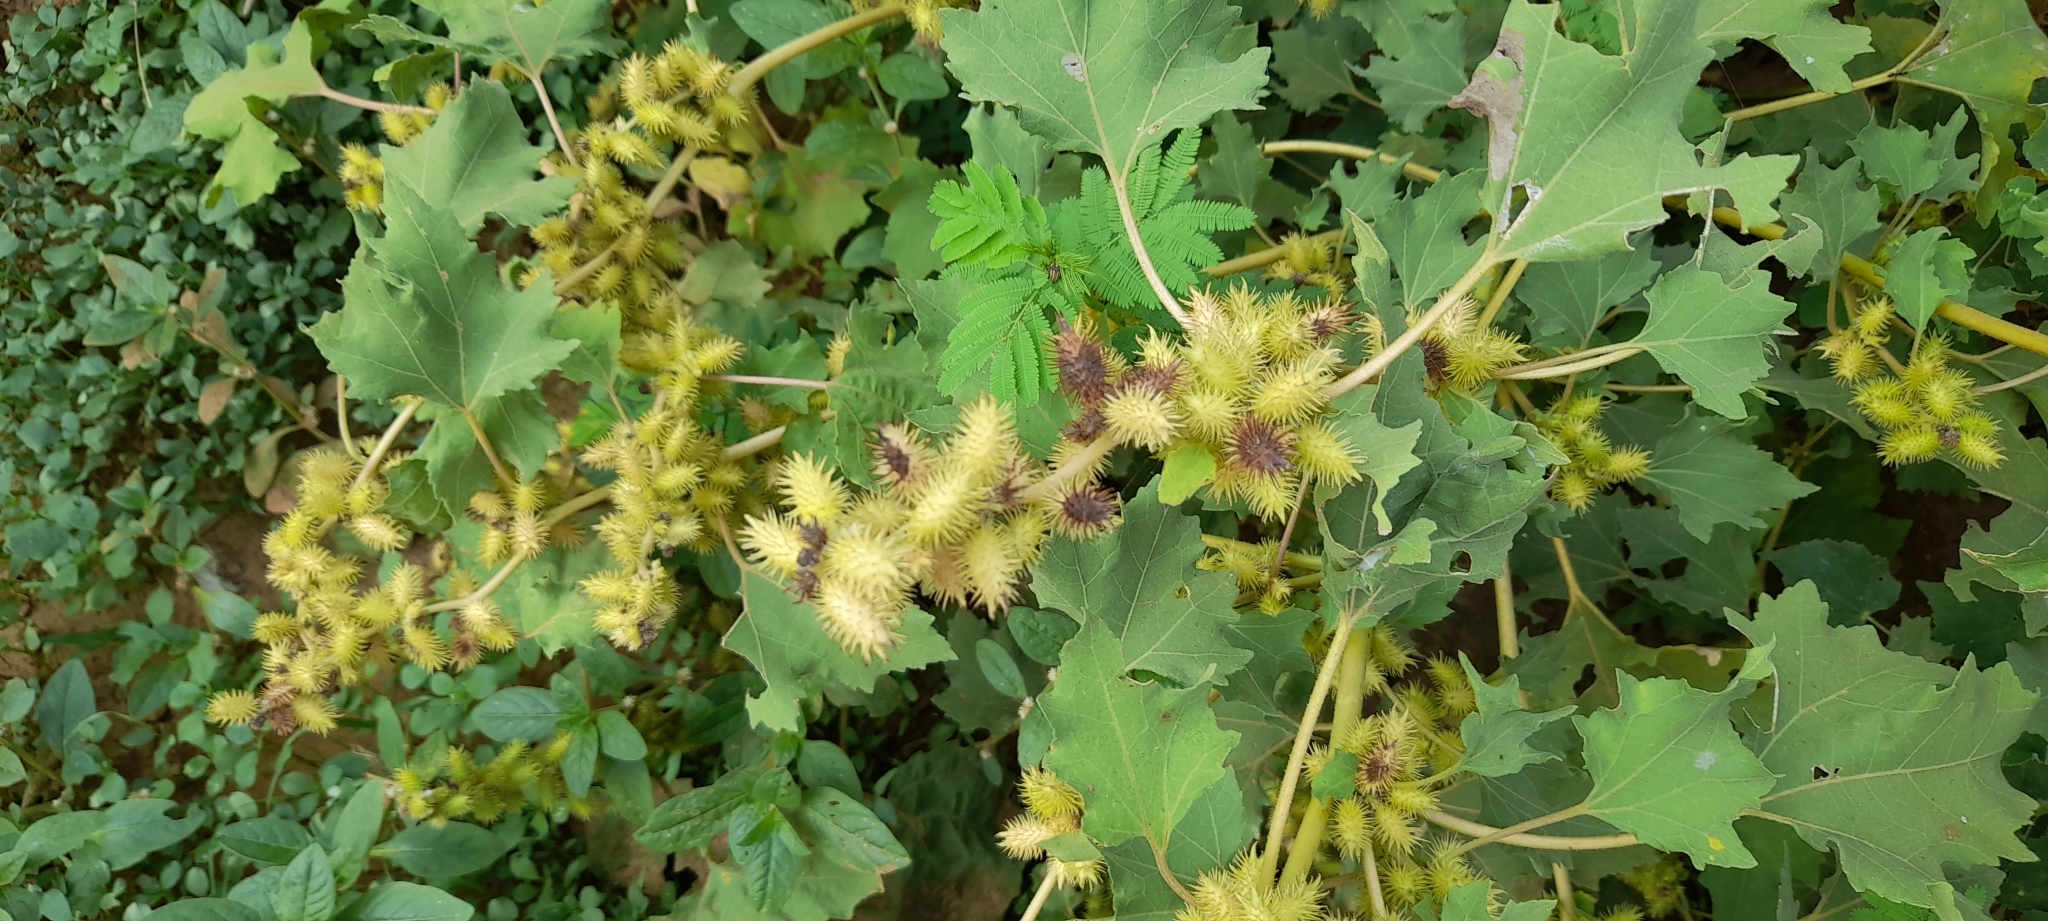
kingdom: Plantae
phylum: Tracheophyta
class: Magnoliopsida
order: Asterales
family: Asteraceae
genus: Xanthium
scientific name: Xanthium strumarium
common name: Rough cocklebur
